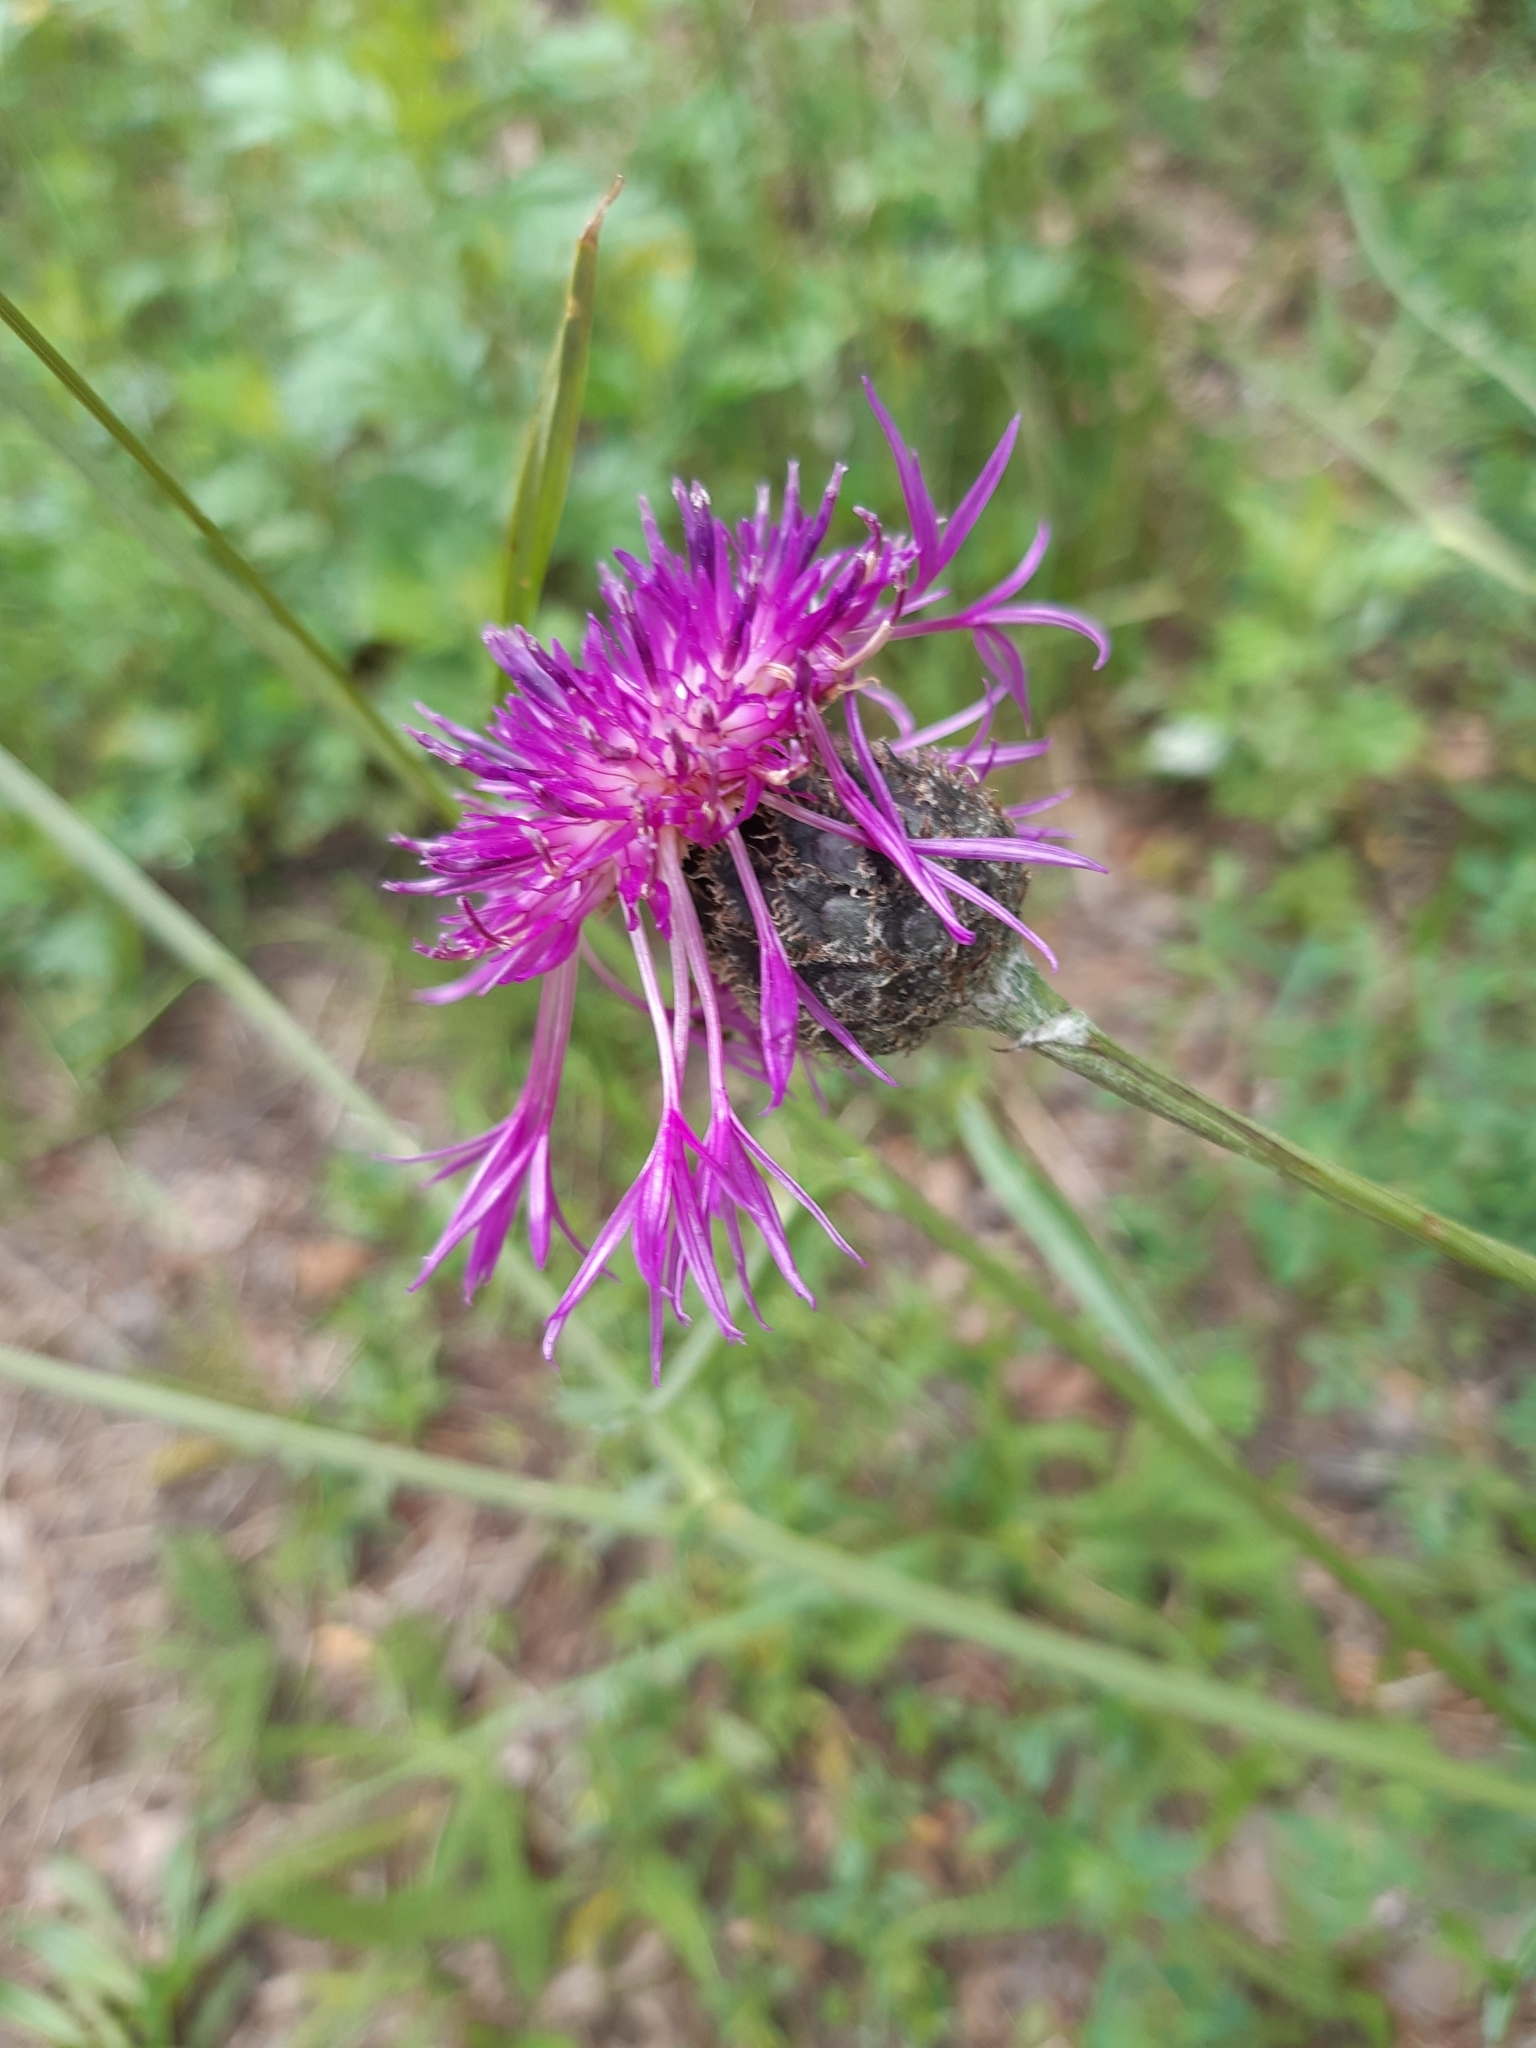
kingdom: Plantae
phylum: Tracheophyta
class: Magnoliopsida
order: Asterales
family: Asteraceae
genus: Centaurea
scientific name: Centaurea scabiosa
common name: Greater knapweed
